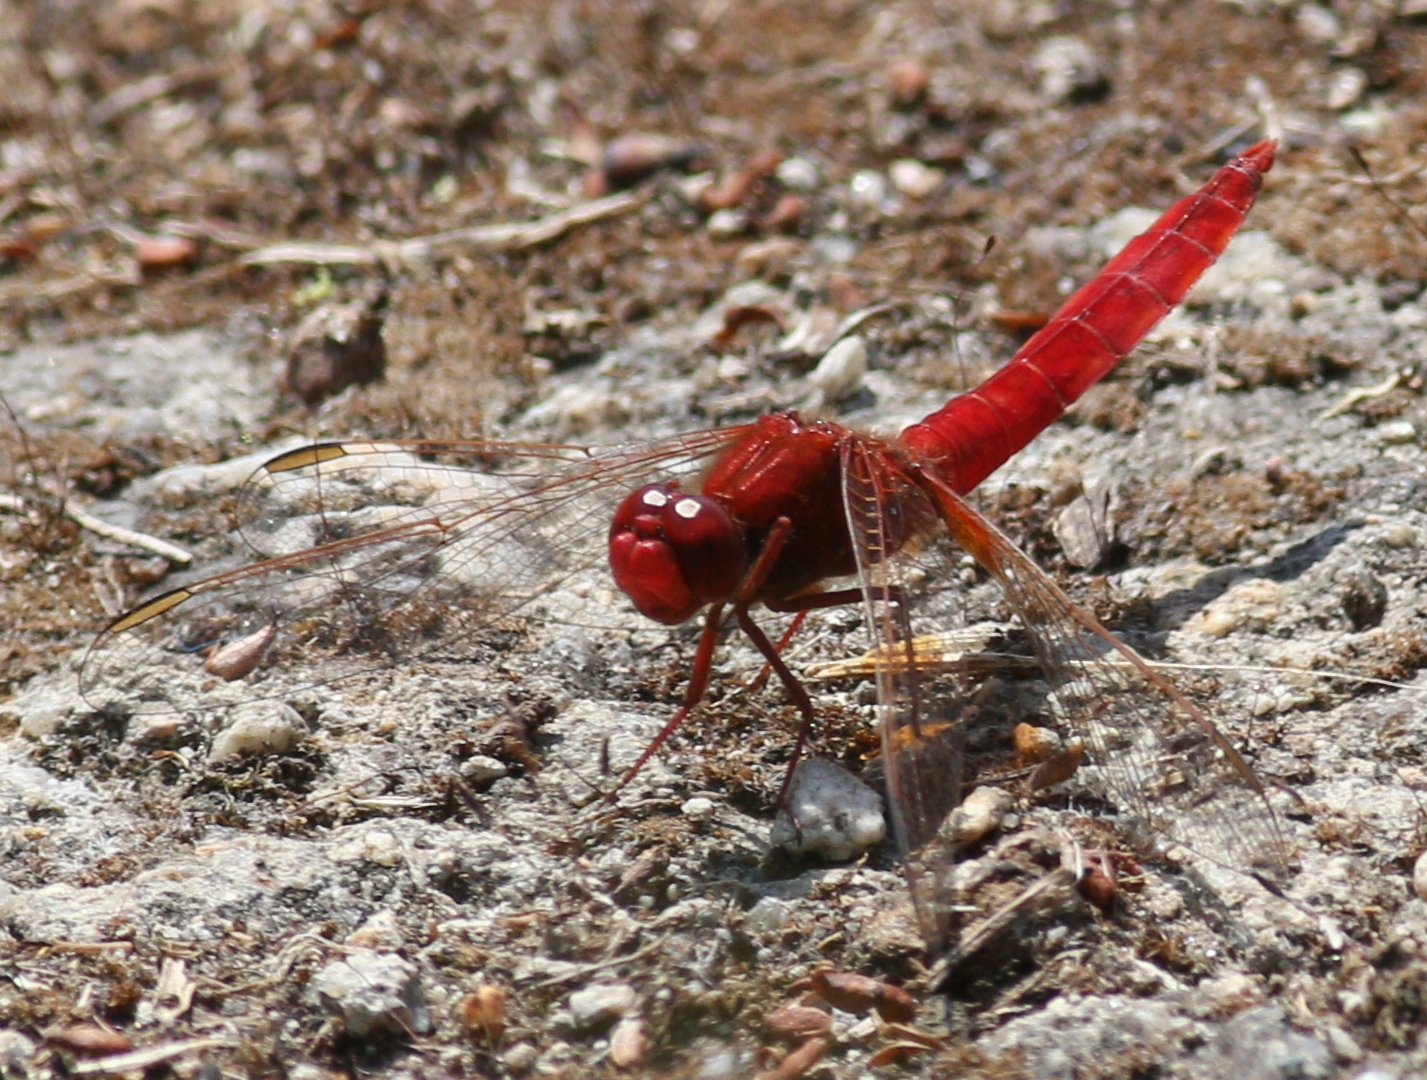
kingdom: Animalia
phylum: Arthropoda
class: Insecta
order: Odonata
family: Libellulidae
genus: Crocothemis
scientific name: Crocothemis erythraea
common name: Scarlet dragonfly
